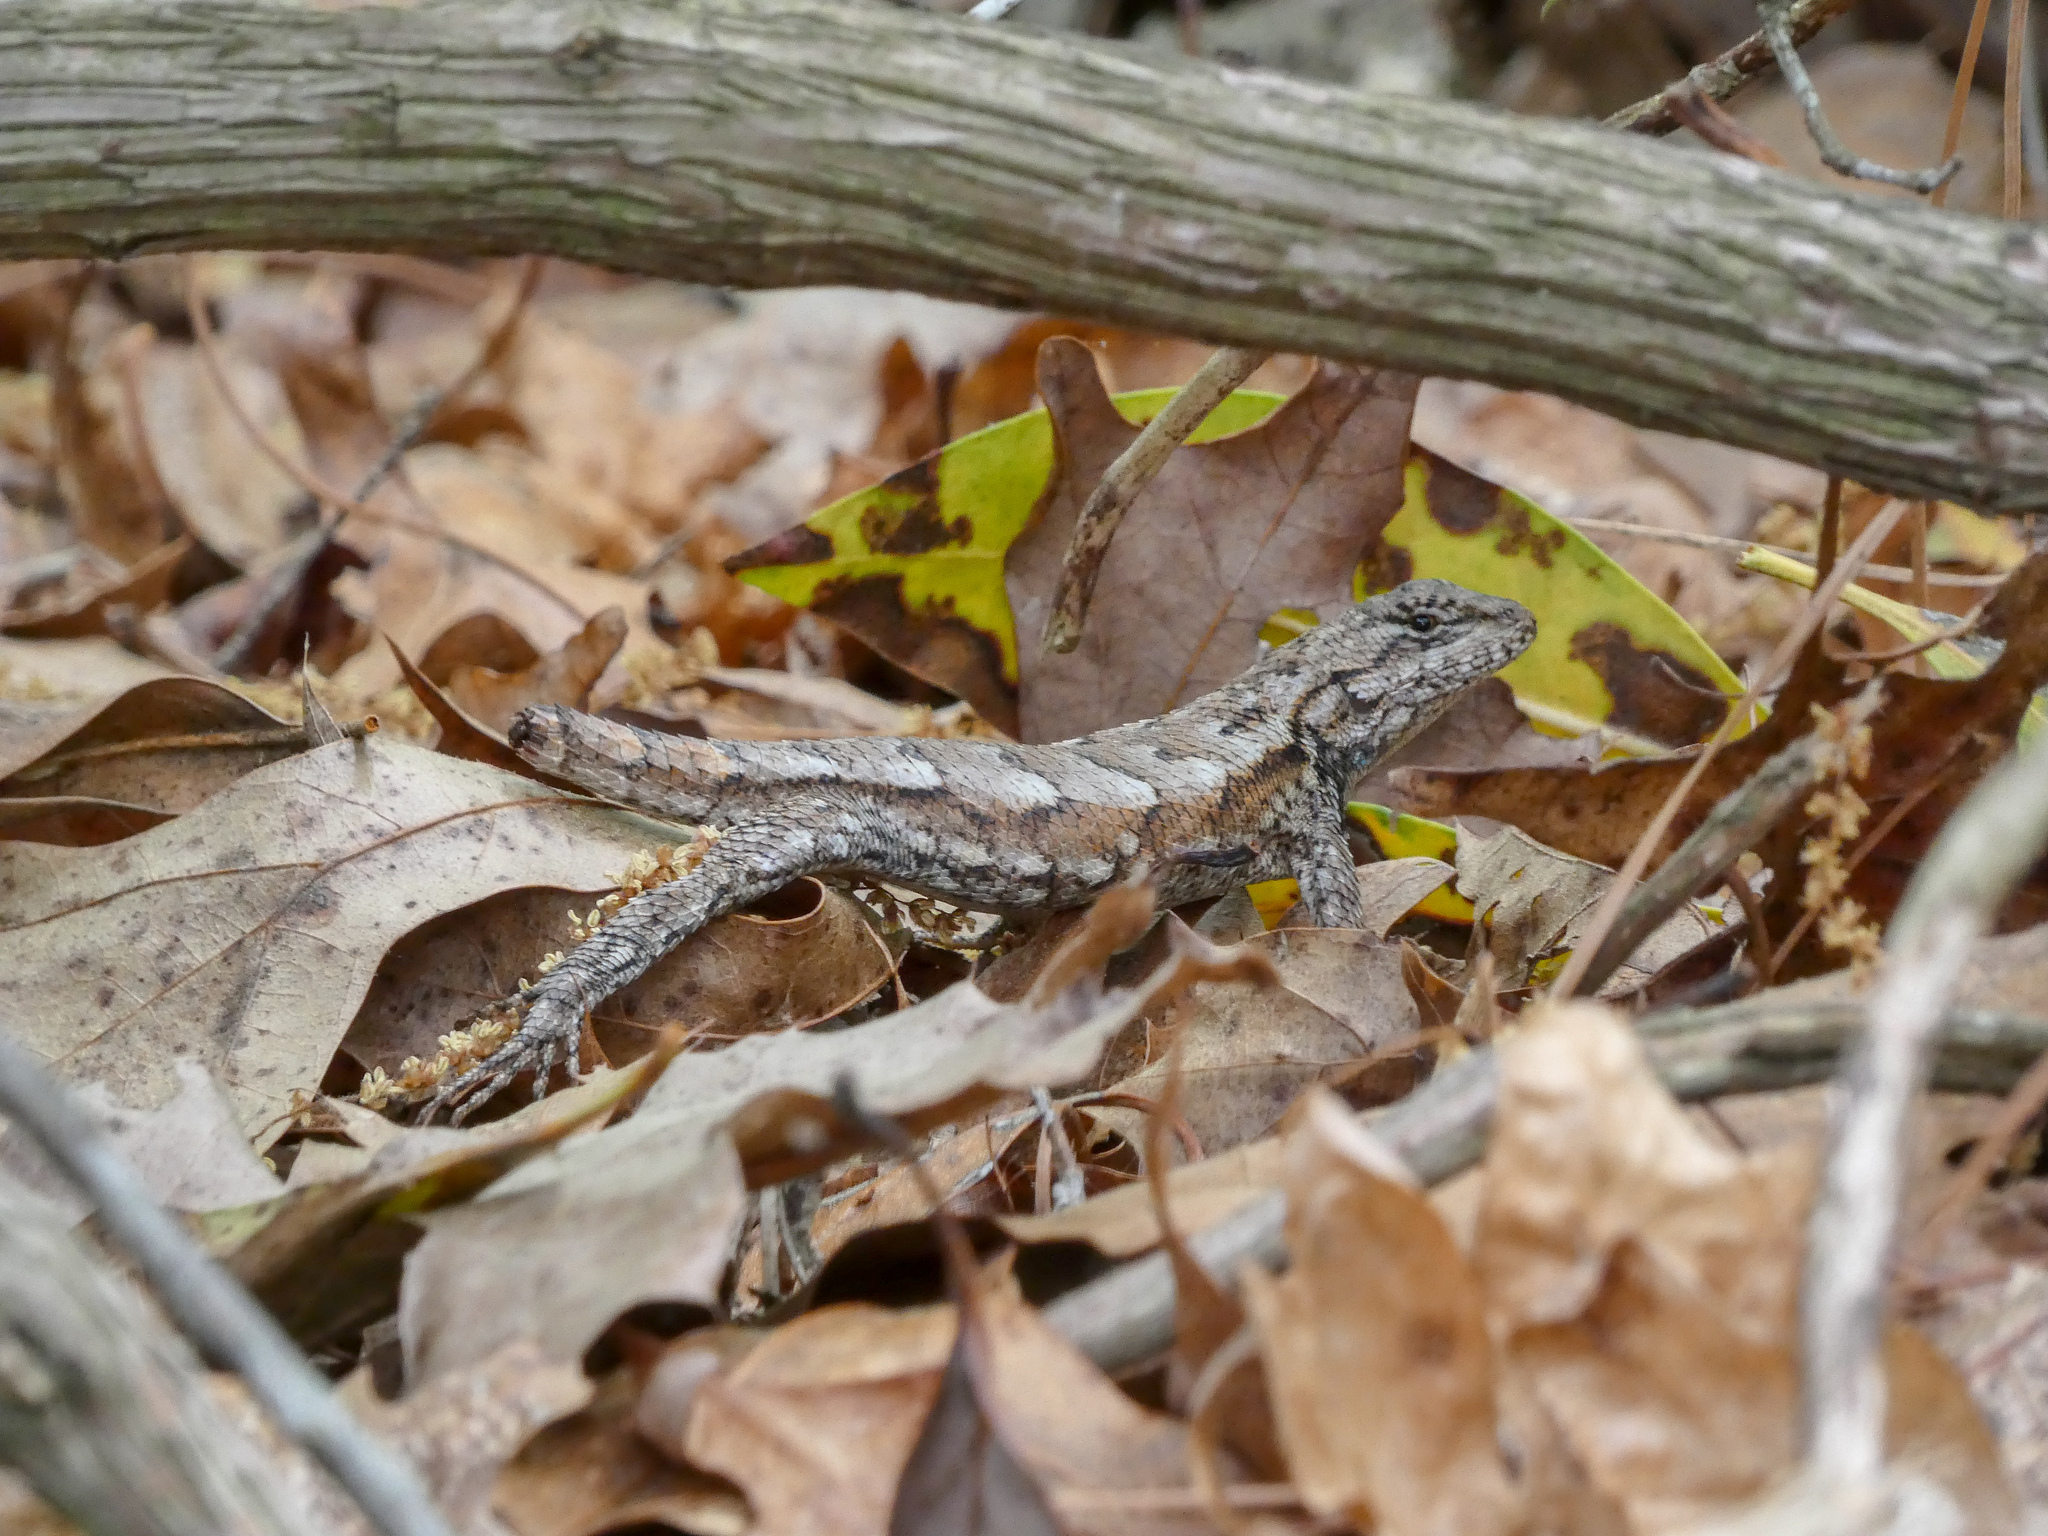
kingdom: Animalia
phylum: Chordata
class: Squamata
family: Phrynosomatidae
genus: Sceloporus
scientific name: Sceloporus undulatus
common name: Eastern fence lizard
